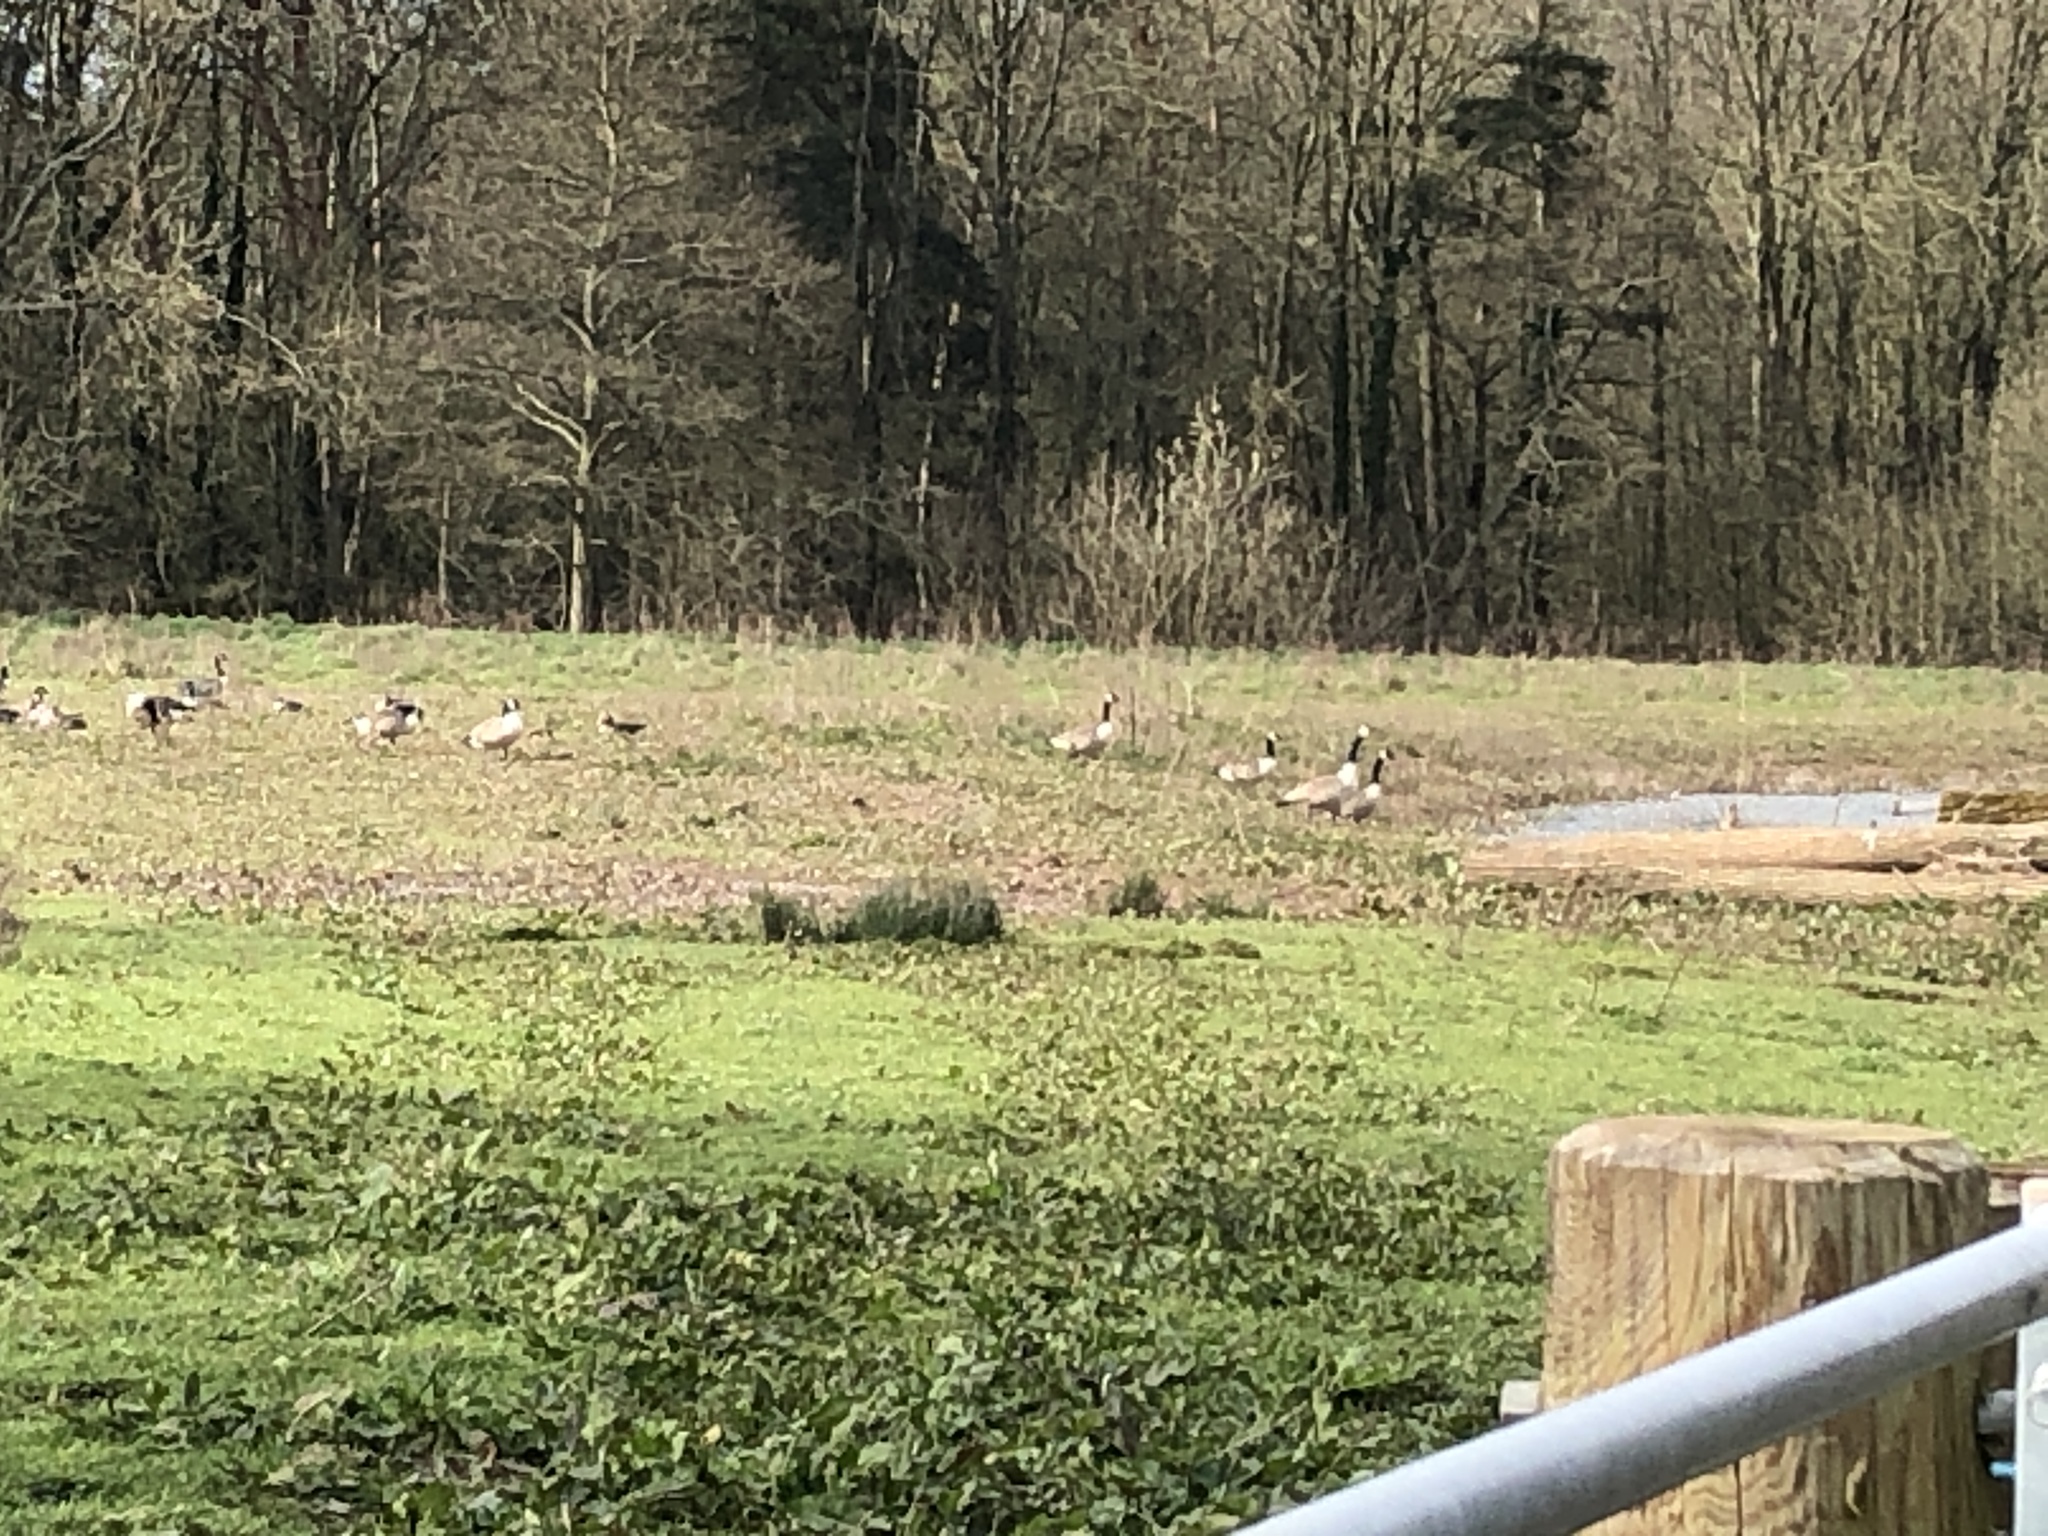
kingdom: Animalia
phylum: Chordata
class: Aves
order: Anseriformes
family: Anatidae
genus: Branta
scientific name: Branta canadensis
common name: Canada goose
